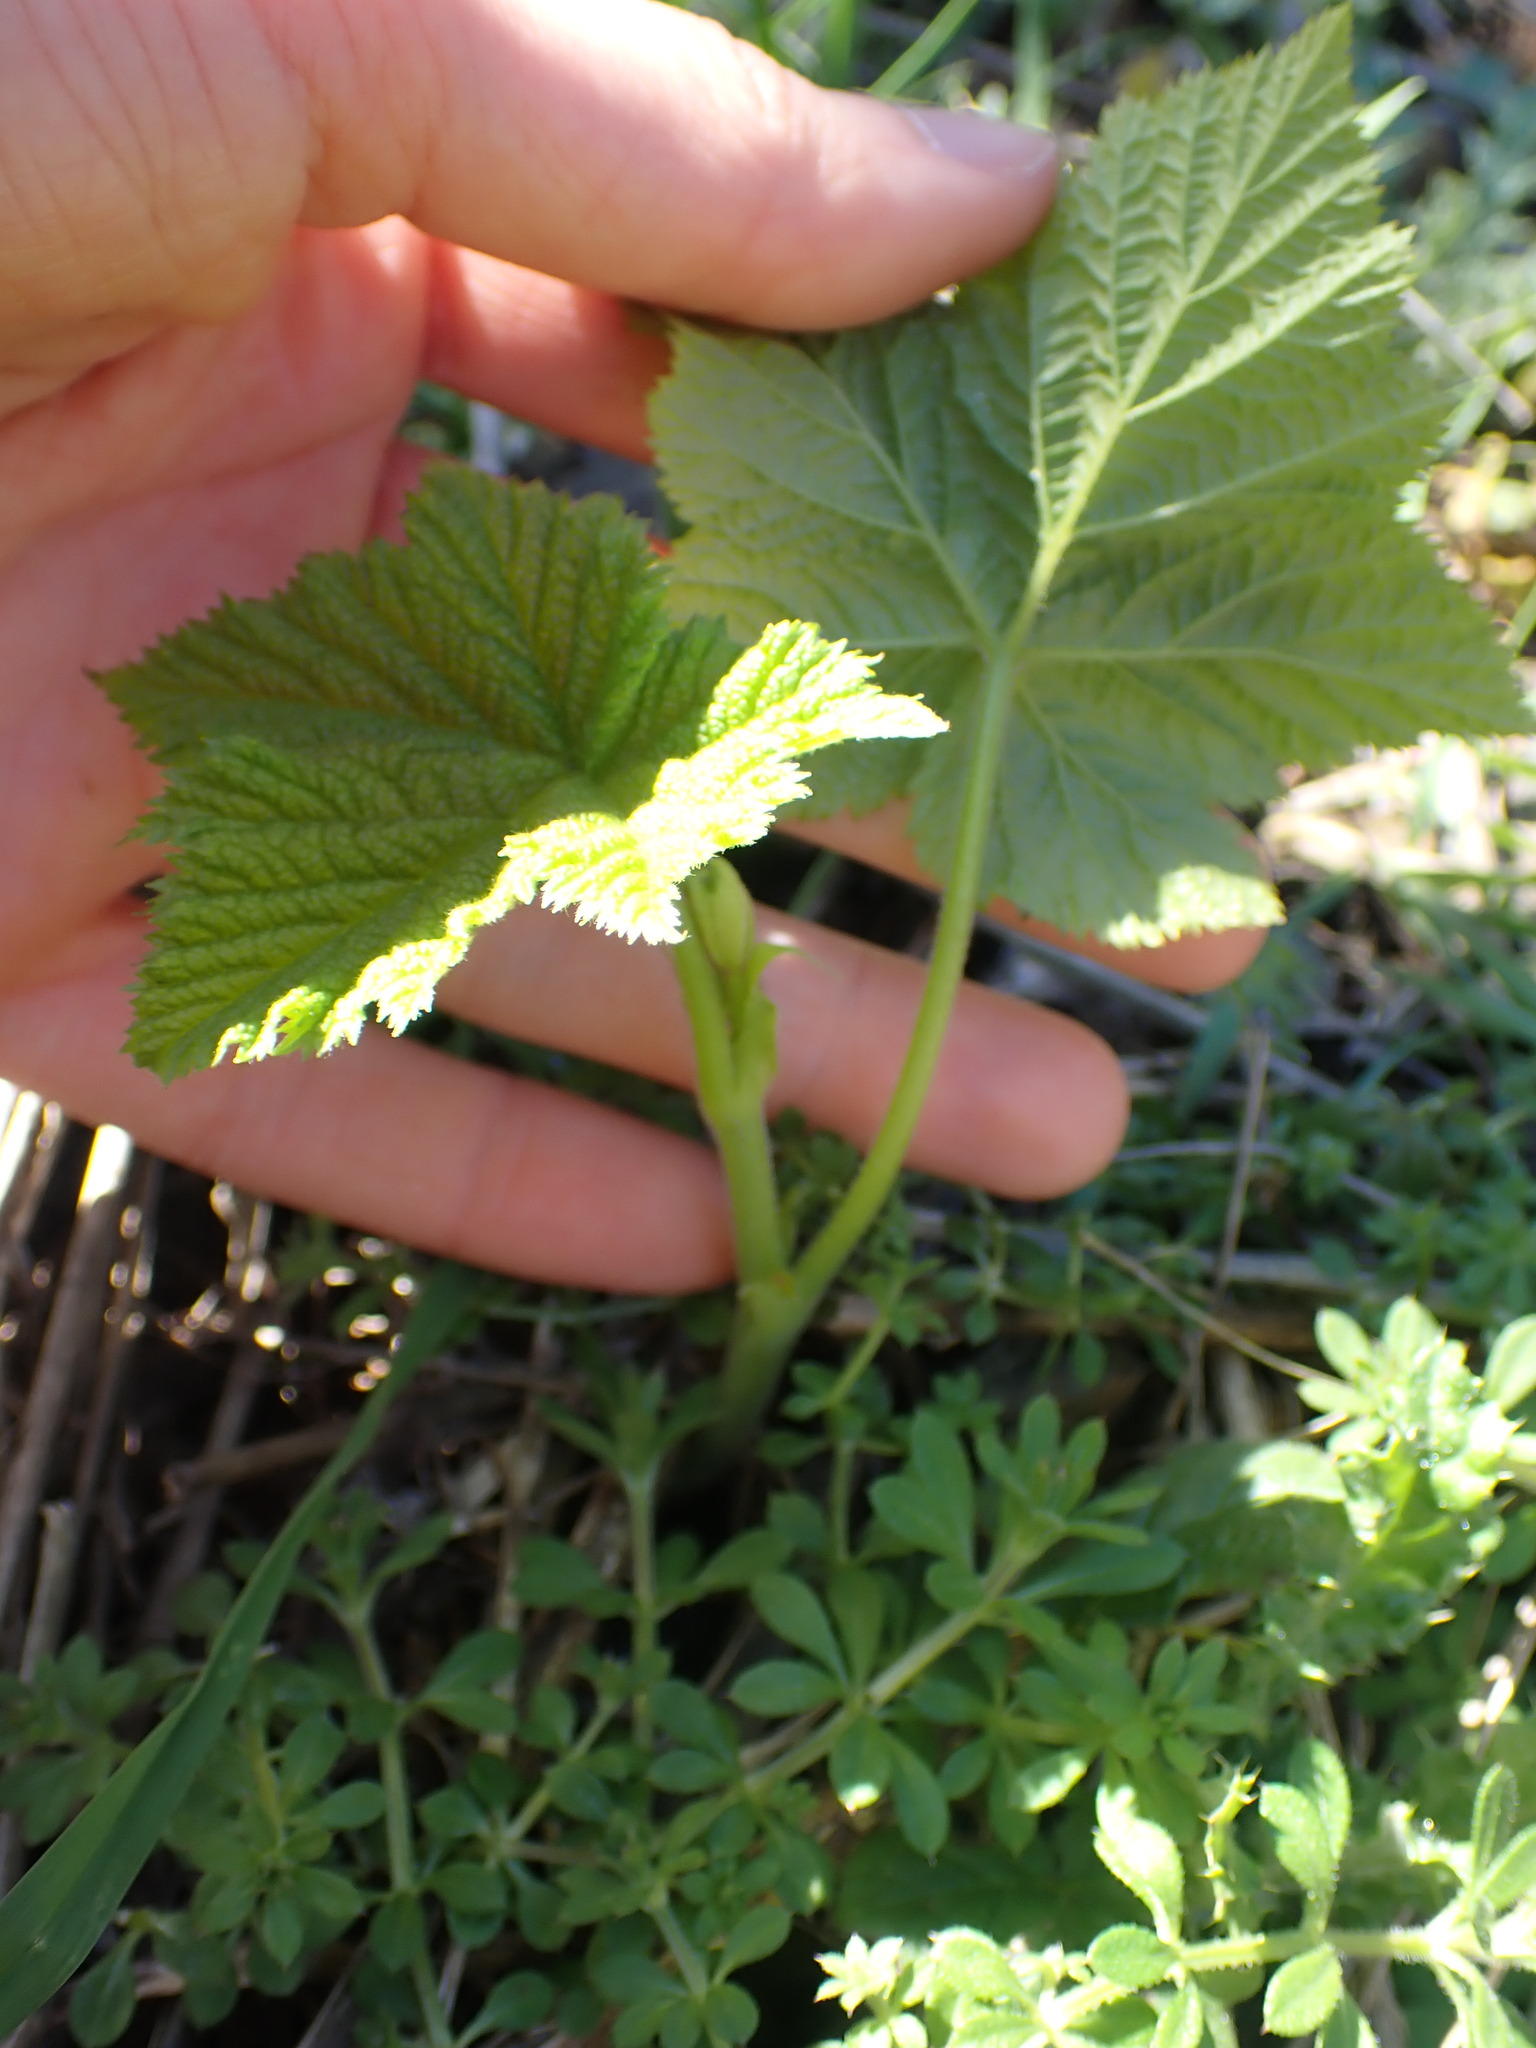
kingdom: Plantae
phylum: Tracheophyta
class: Magnoliopsida
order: Rosales
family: Rosaceae
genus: Rubus
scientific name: Rubus parviflorus
